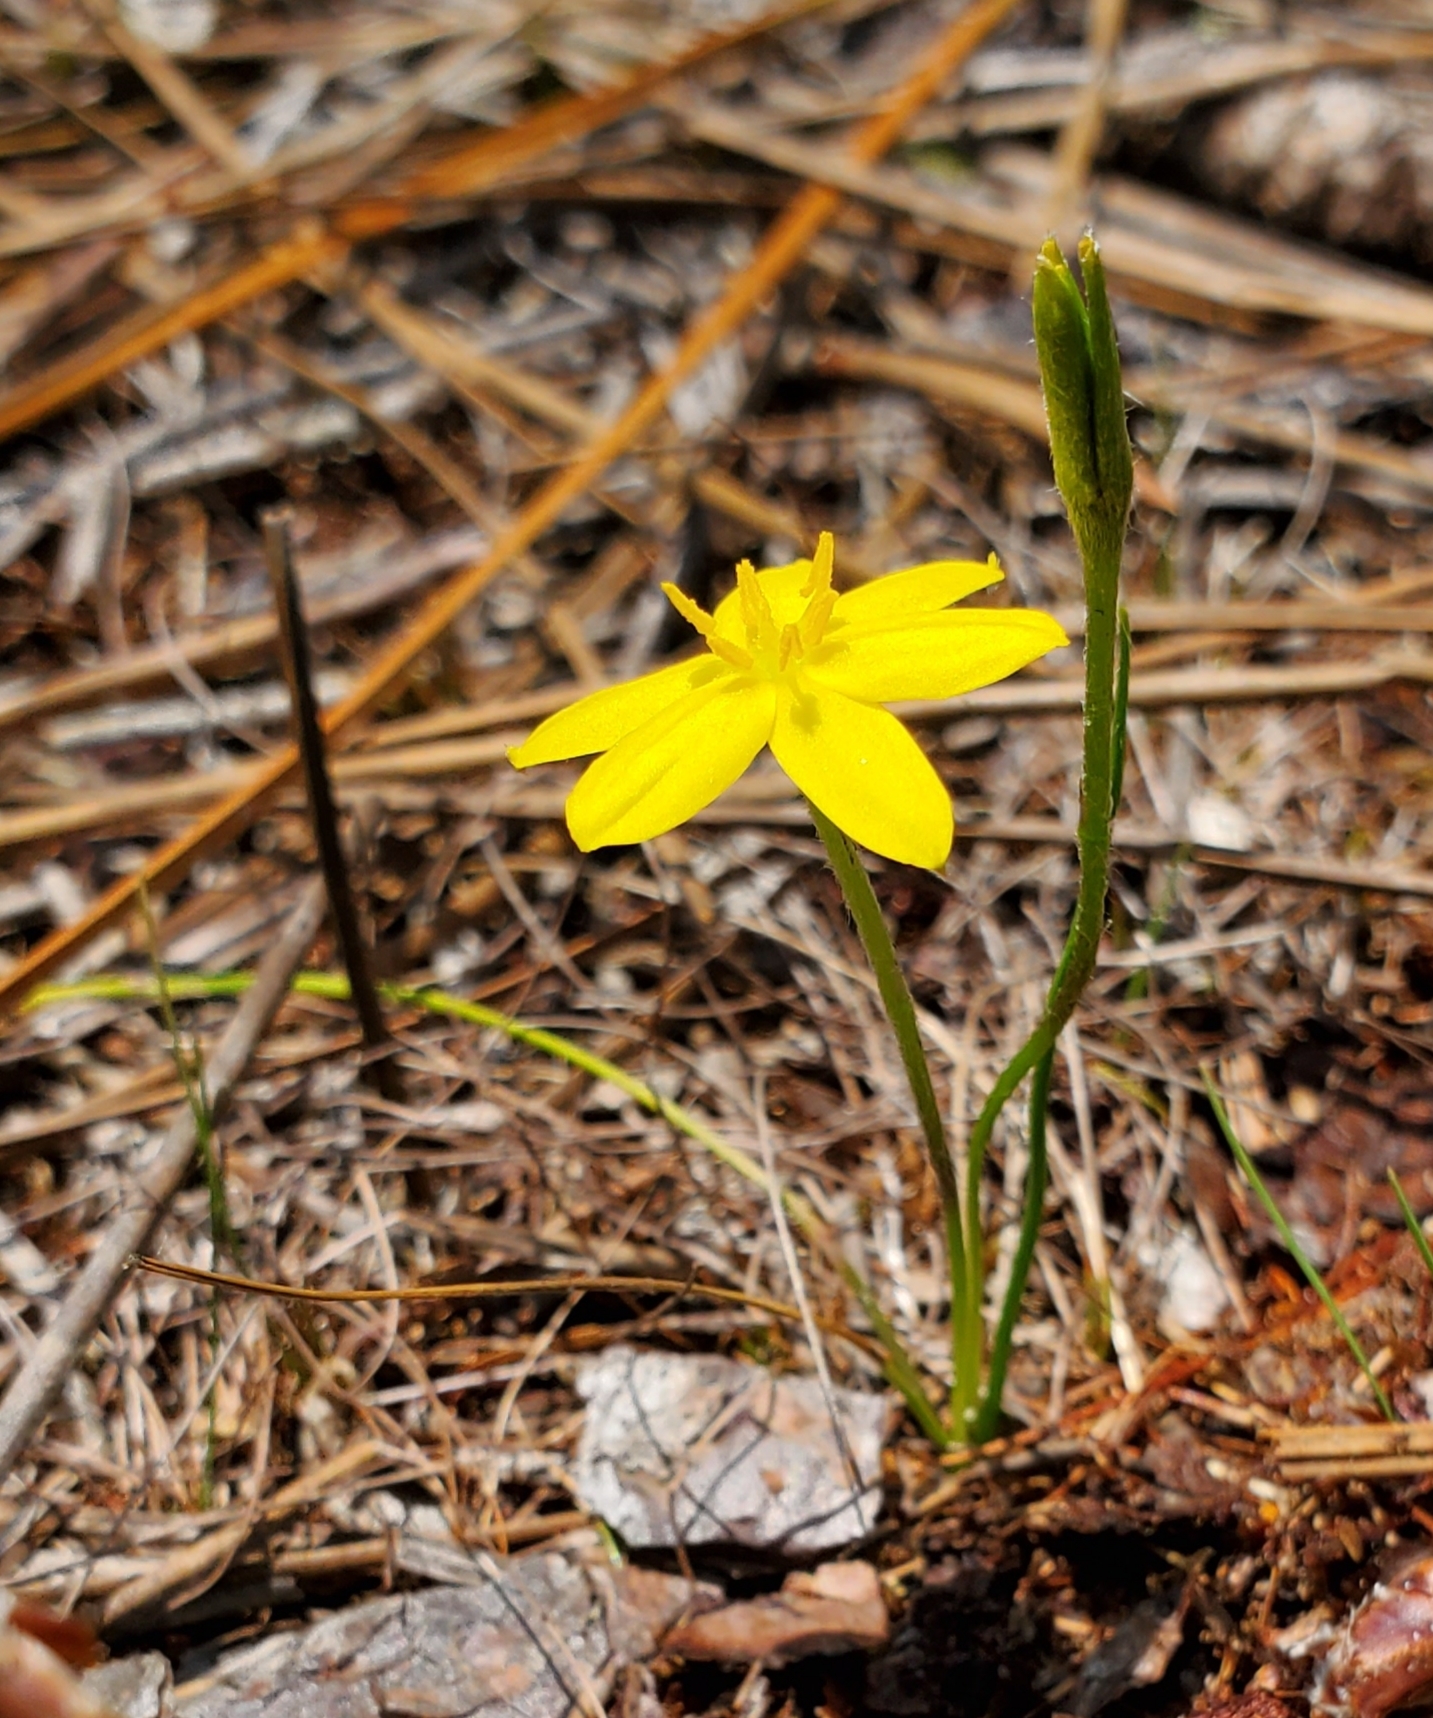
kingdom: Plantae
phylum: Tracheophyta
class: Liliopsida
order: Asparagales
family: Hypoxidaceae
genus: Hypoxis
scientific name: Hypoxis juncea
